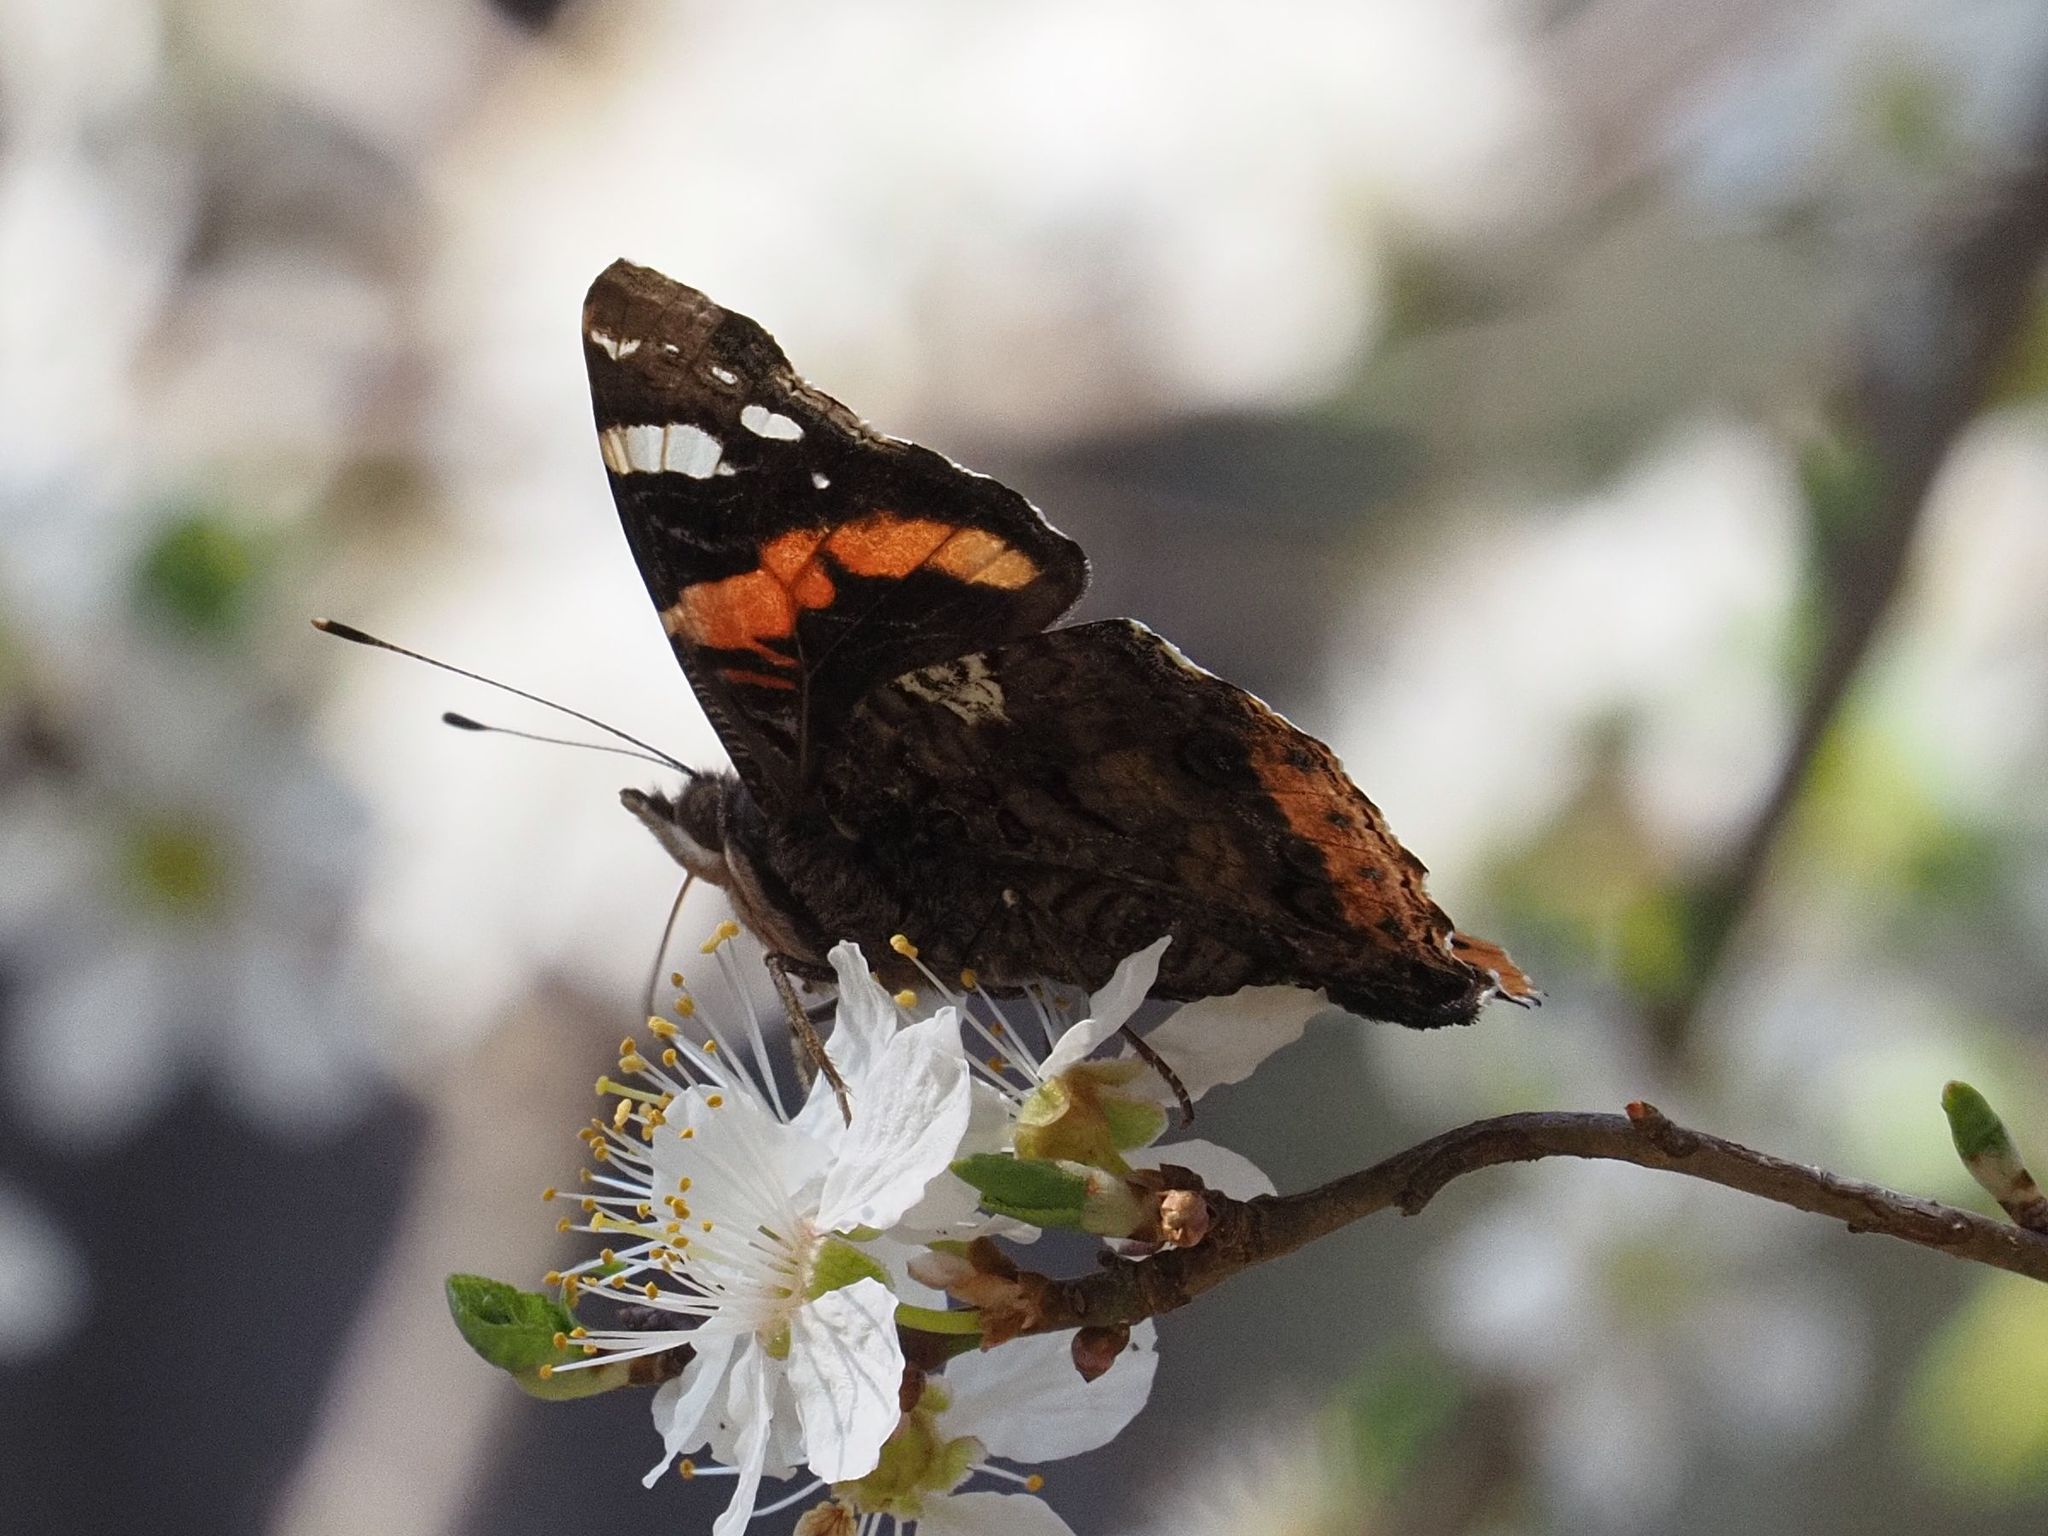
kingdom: Animalia
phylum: Arthropoda
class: Insecta
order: Lepidoptera
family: Nymphalidae
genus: Vanessa
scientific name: Vanessa atalanta
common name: Red admiral
